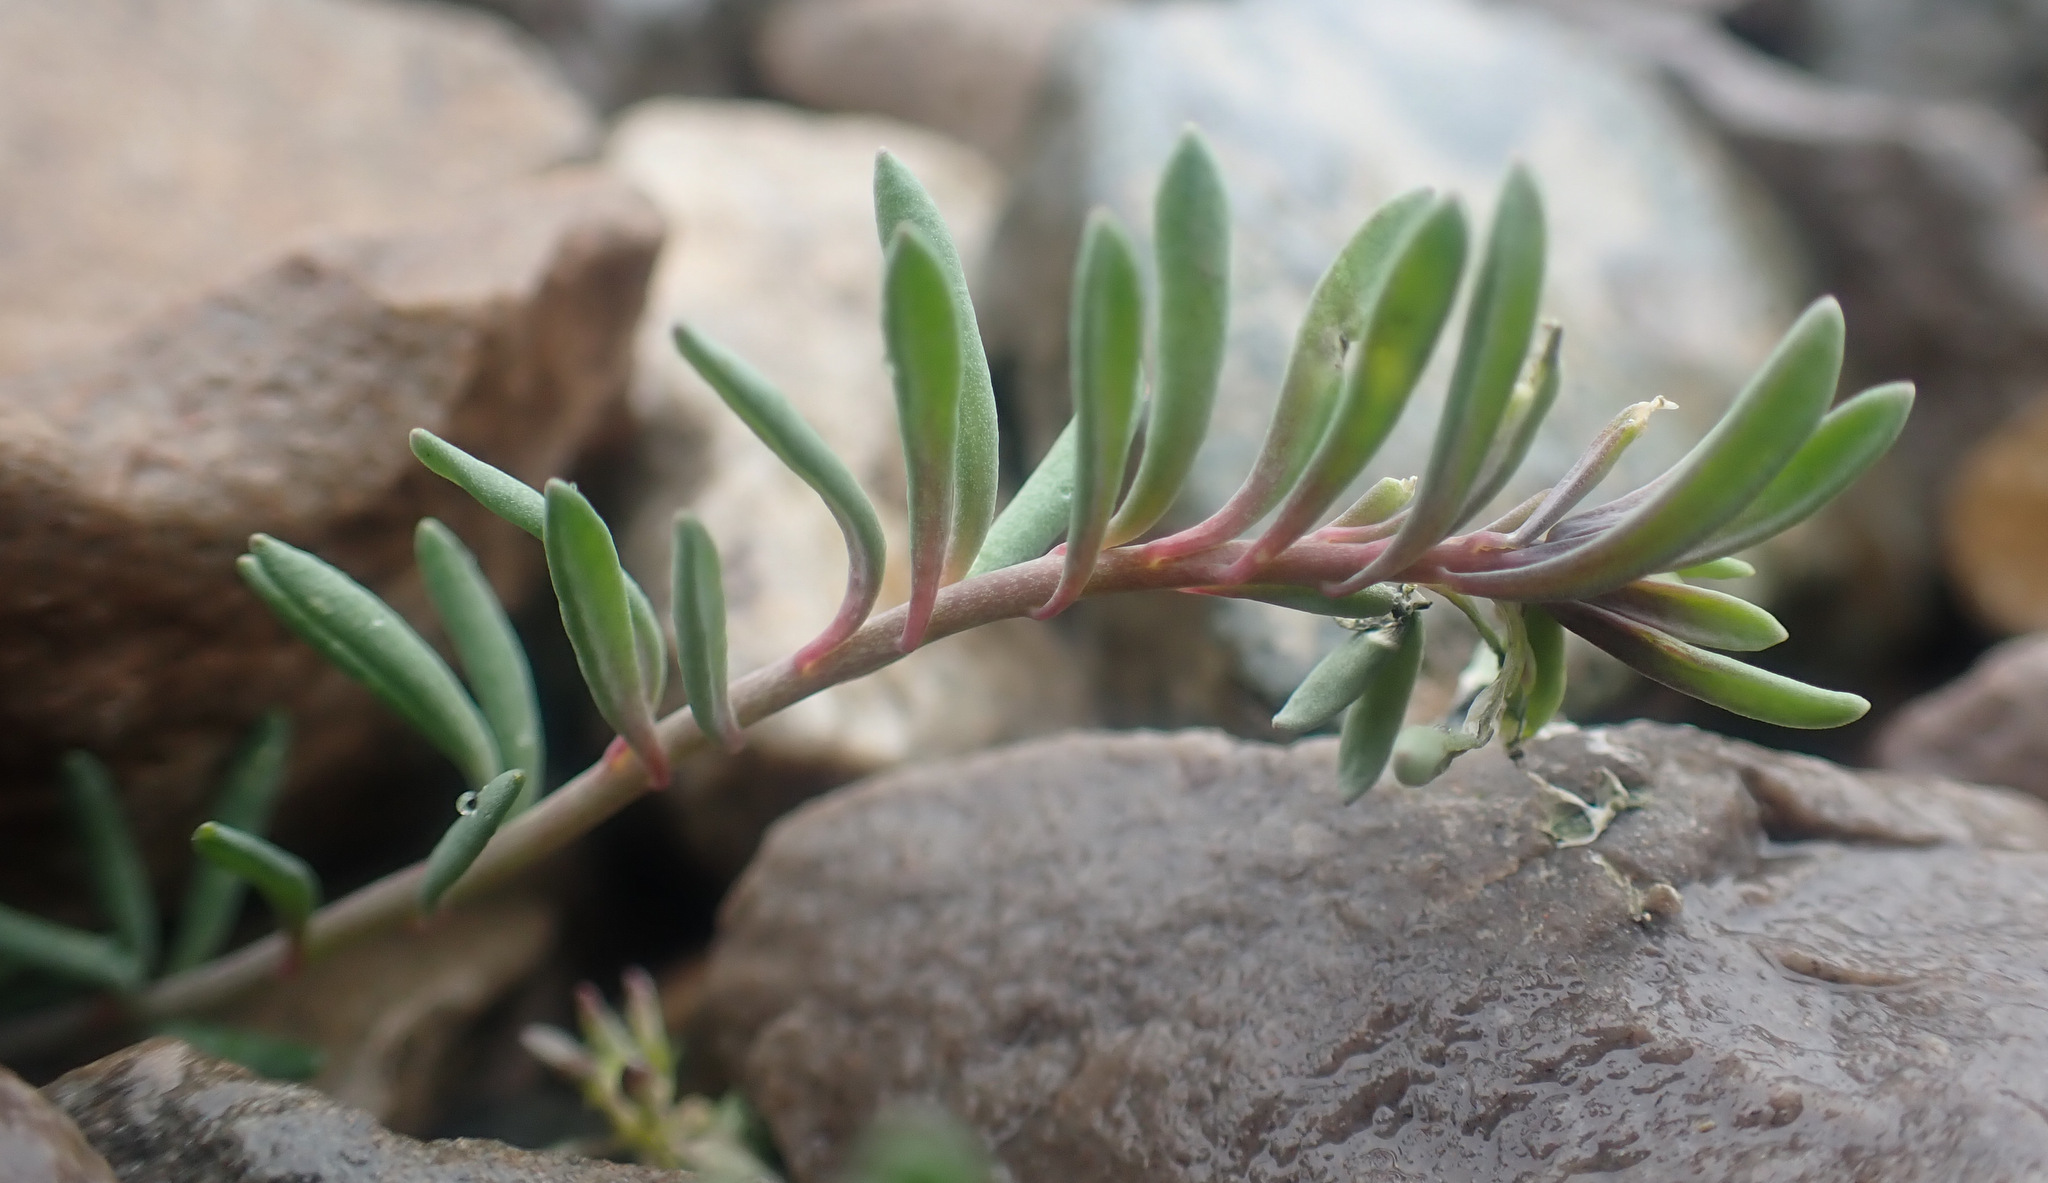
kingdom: Plantae
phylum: Tracheophyta
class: Magnoliopsida
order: Lamiales
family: Plantaginaceae
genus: Linaria
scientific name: Linaria supina
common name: Prostrate toadflax
